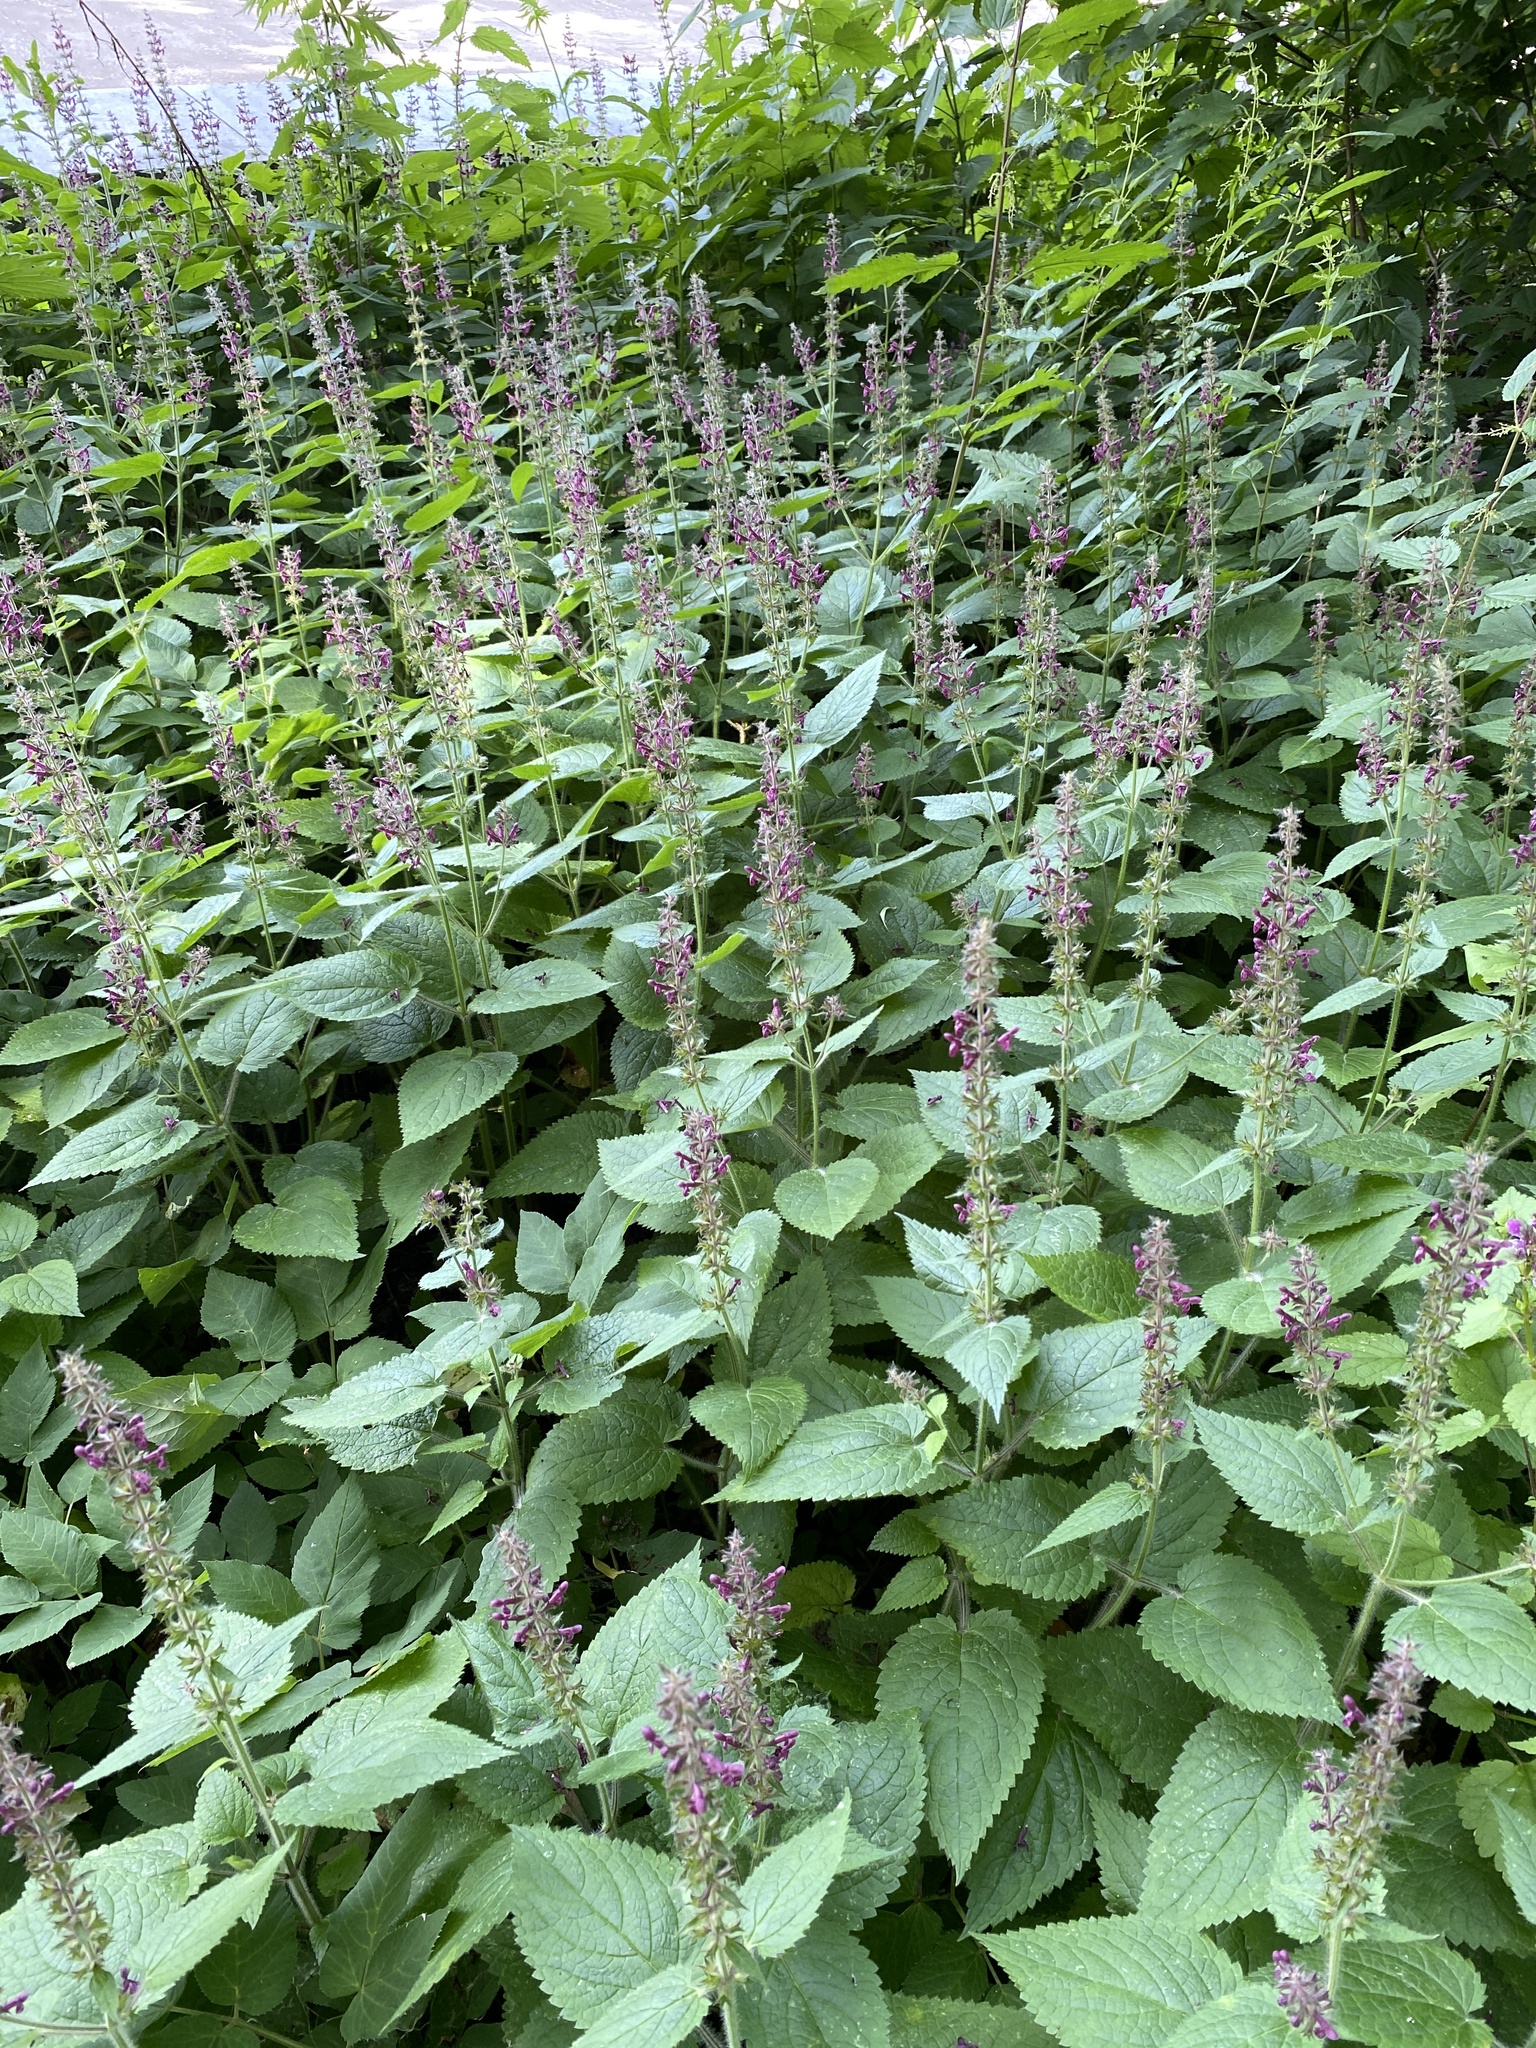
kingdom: Plantae
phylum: Tracheophyta
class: Magnoliopsida
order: Lamiales
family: Lamiaceae
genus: Stachys
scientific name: Stachys sylvatica
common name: Hedge woundwort
